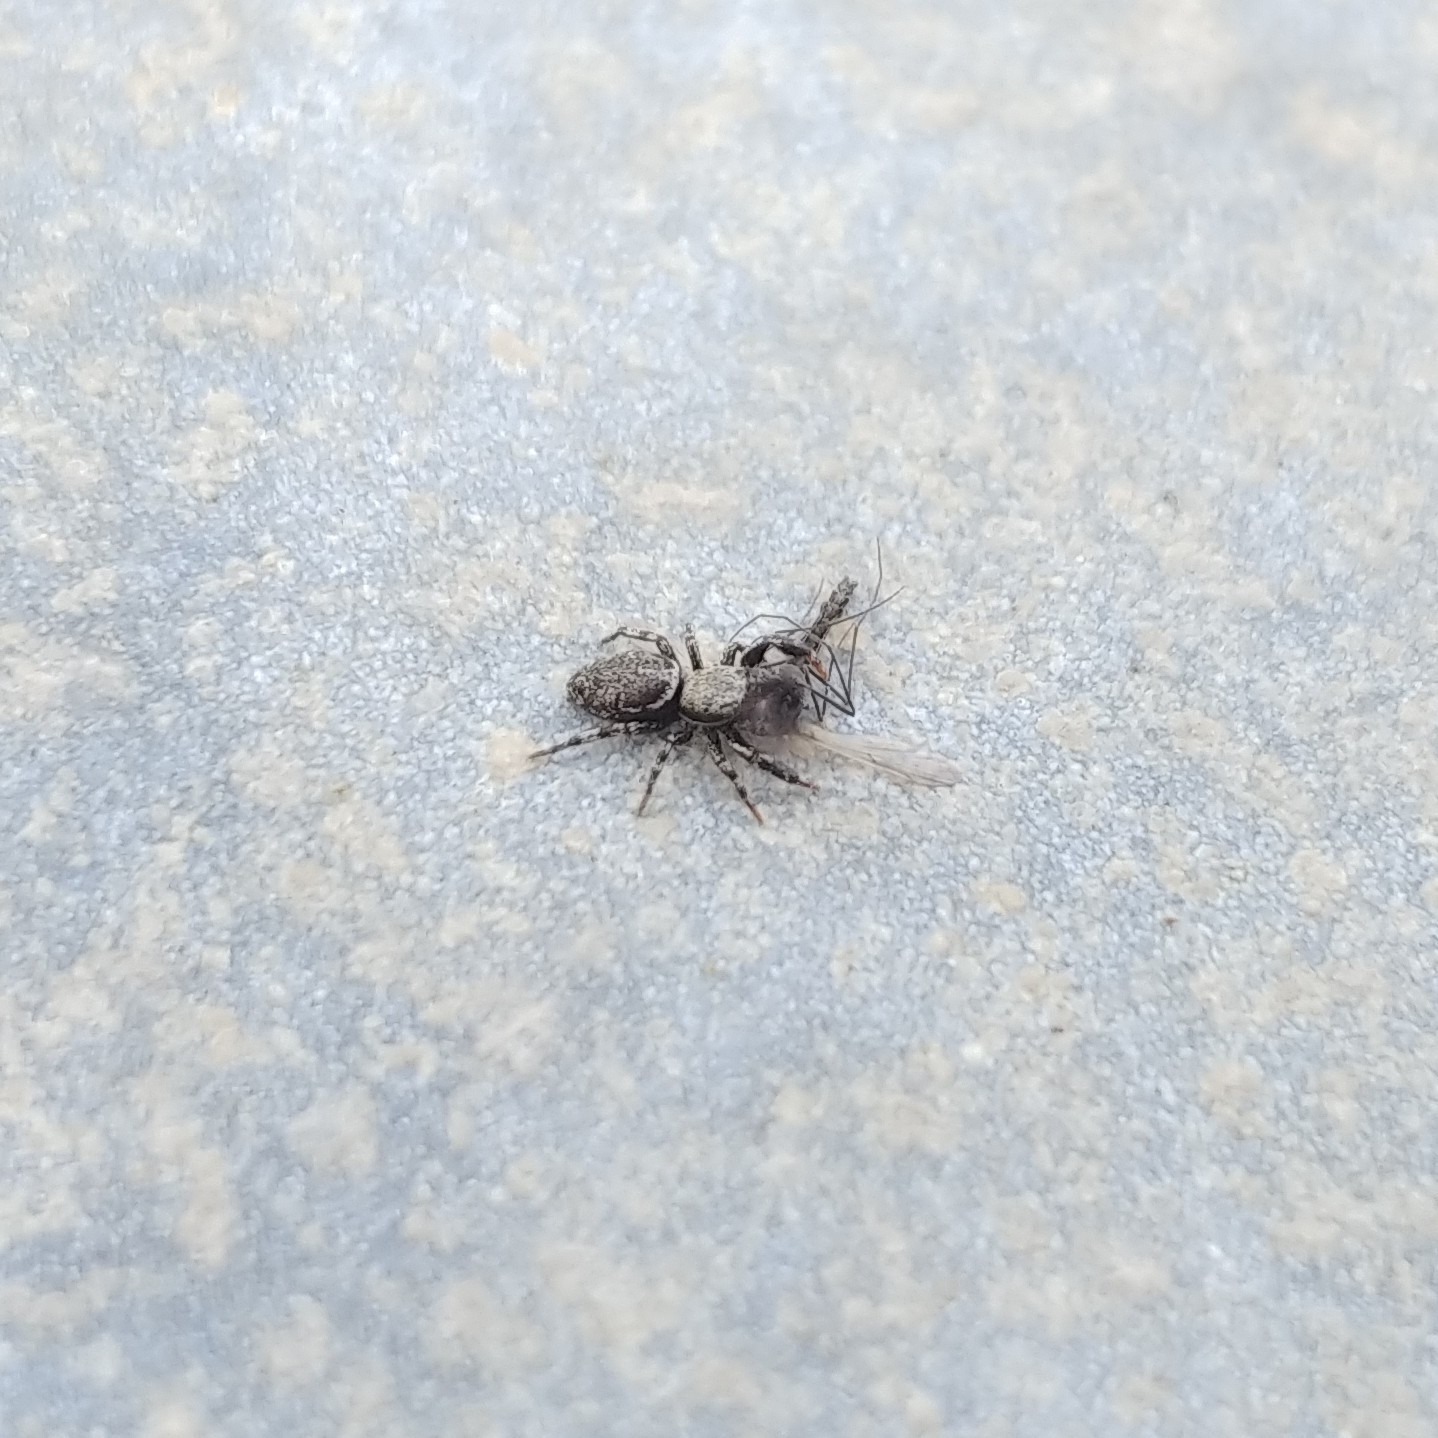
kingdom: Animalia
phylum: Arthropoda
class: Arachnida
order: Araneae
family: Salticidae
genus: Tutelina
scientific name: Tutelina harti
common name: Hart's jumping spider
